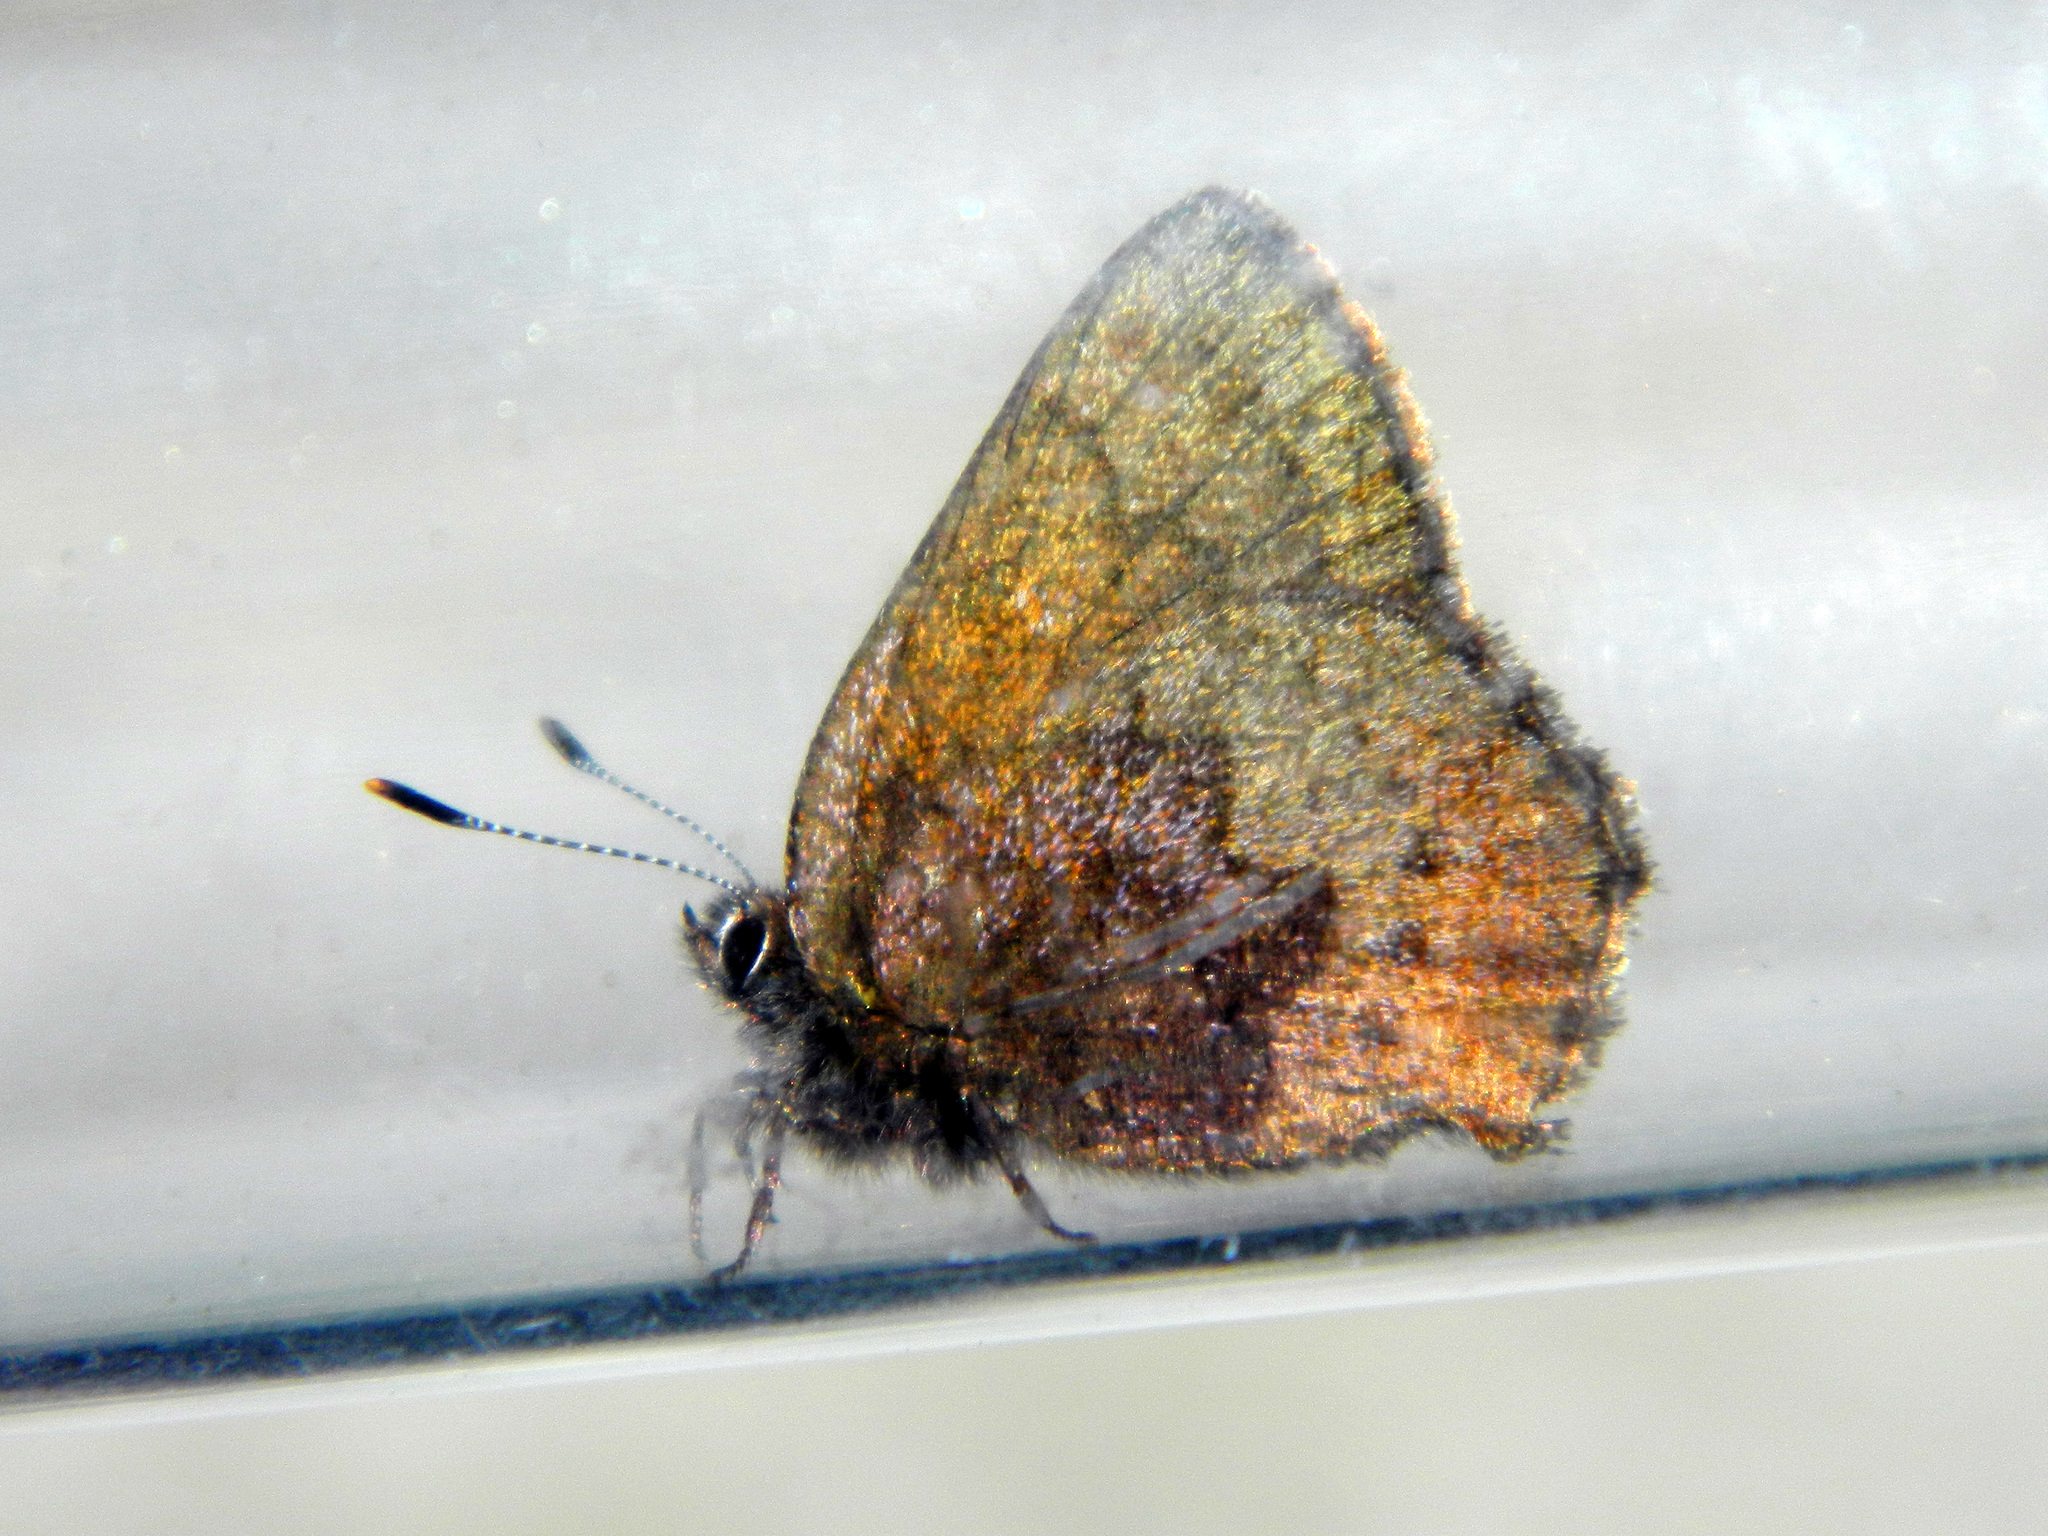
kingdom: Animalia
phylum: Arthropoda
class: Insecta
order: Lepidoptera
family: Lycaenidae
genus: Incisalia
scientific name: Incisalia irioides
